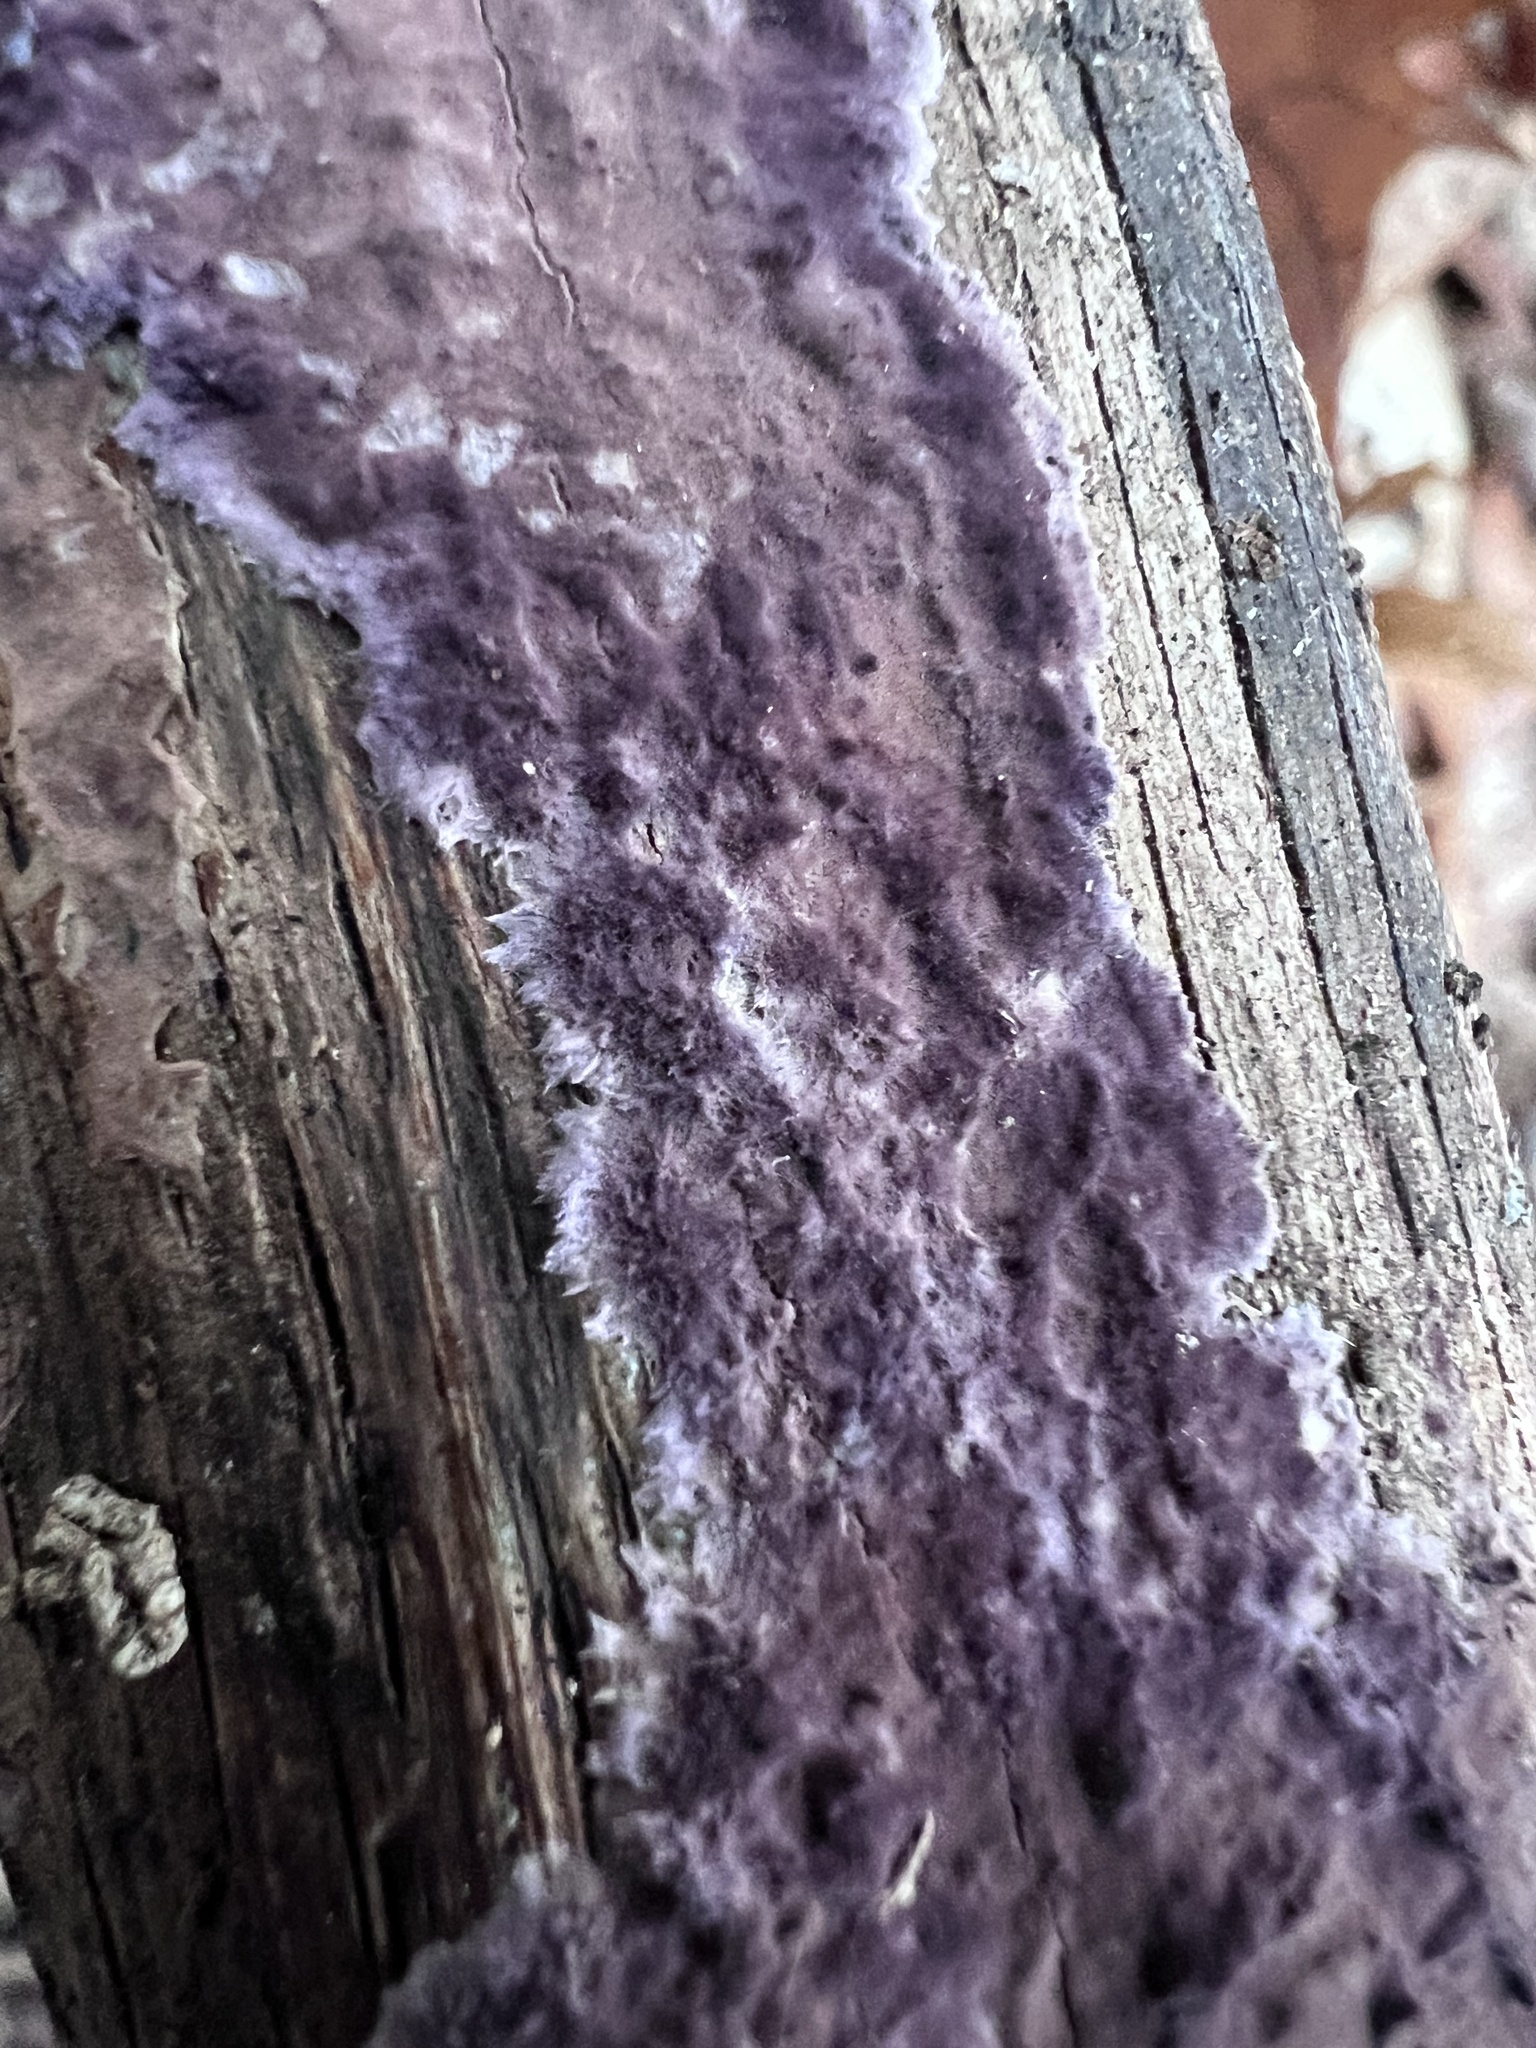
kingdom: Fungi
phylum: Basidiomycota
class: Agaricomycetes
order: Polyporales
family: Phanerochaetaceae
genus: Phlebiopsis
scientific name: Phlebiopsis crassa
